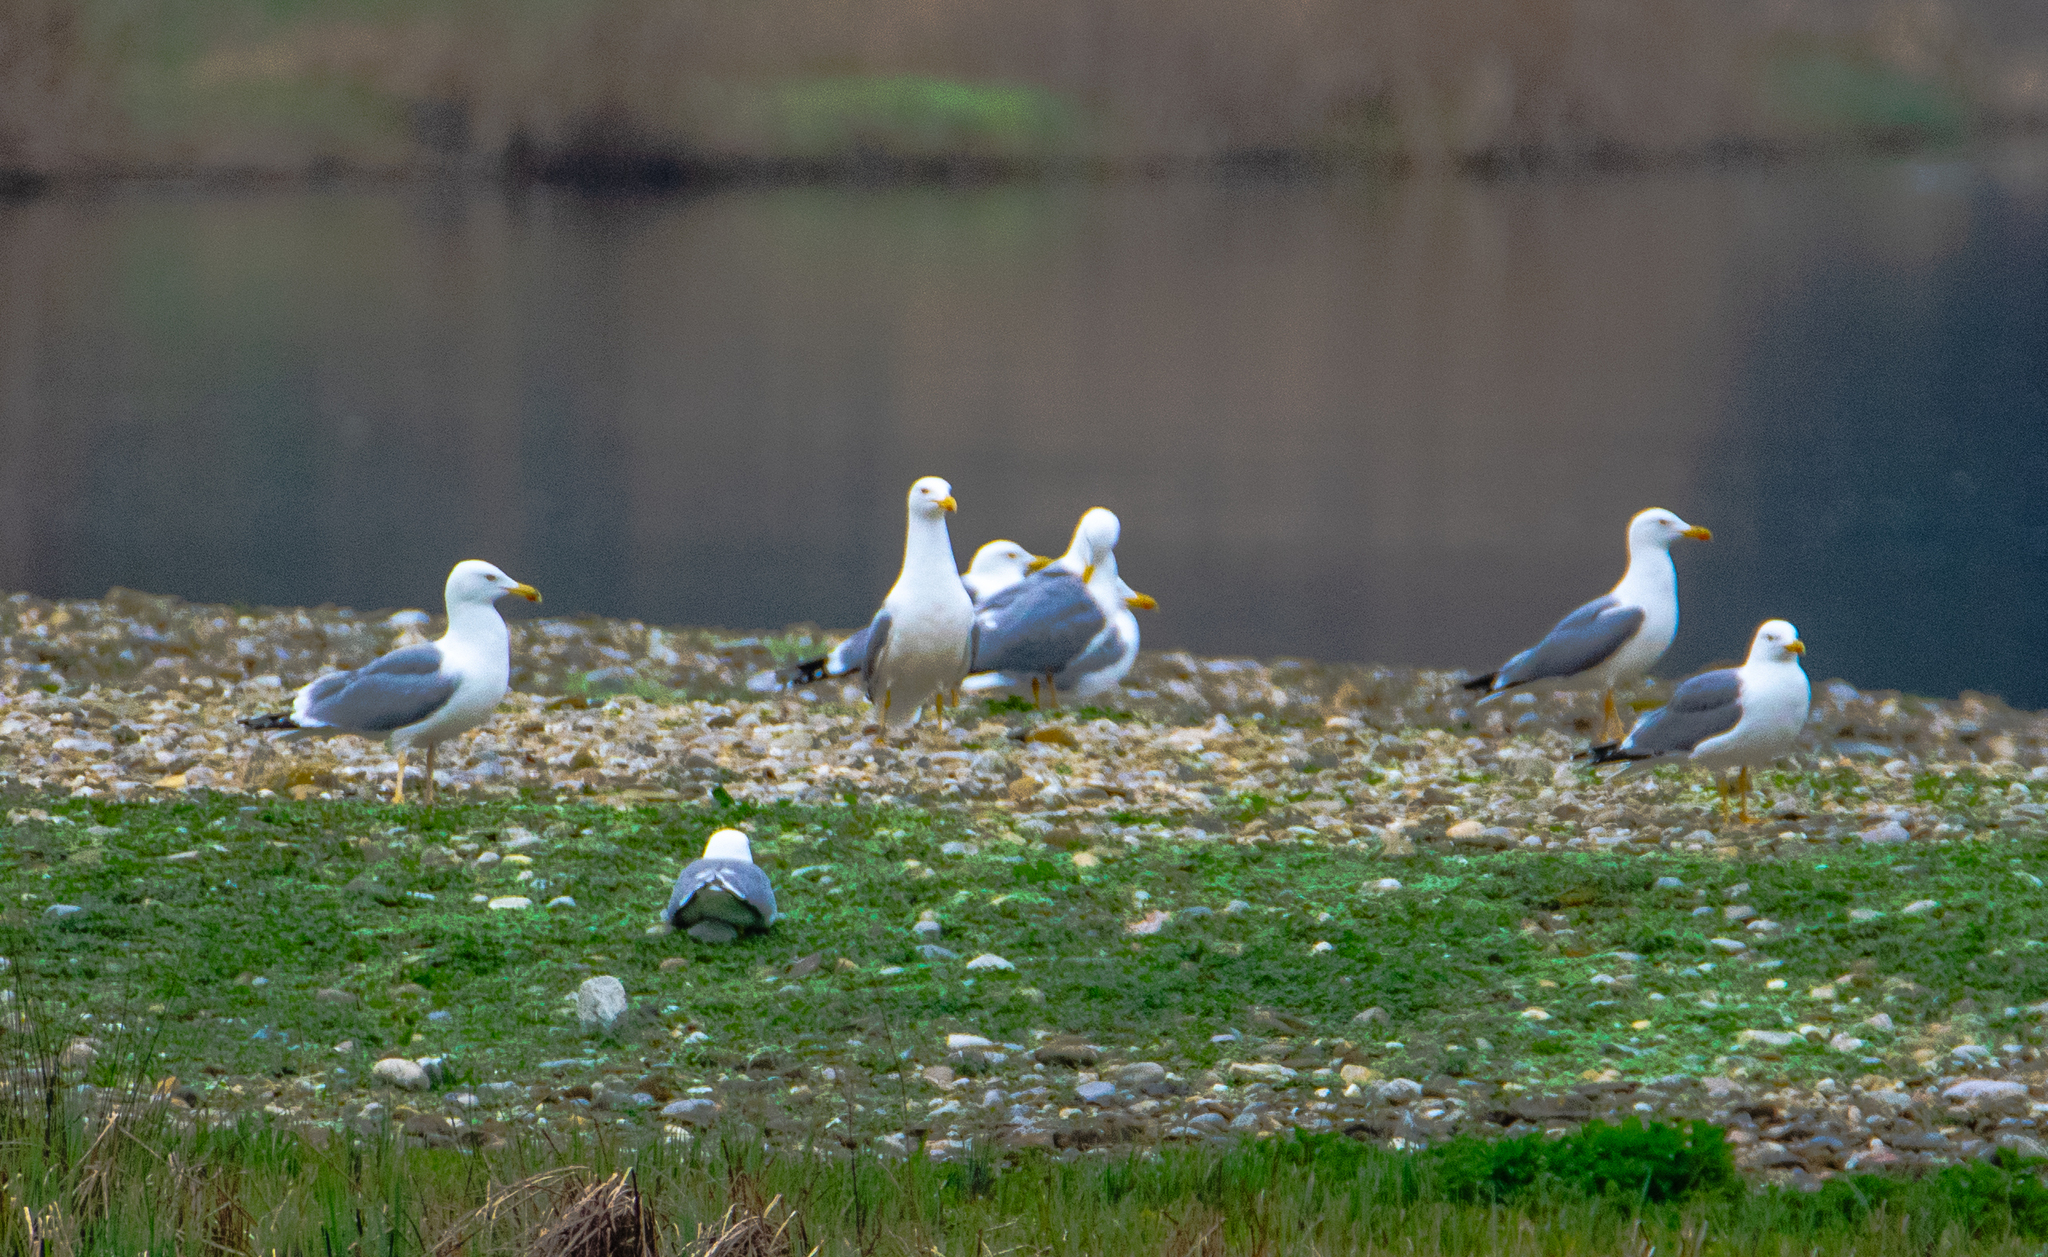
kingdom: Animalia
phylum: Chordata
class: Aves
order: Charadriiformes
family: Laridae
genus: Larus
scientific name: Larus michahellis
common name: Yellow-legged gull
